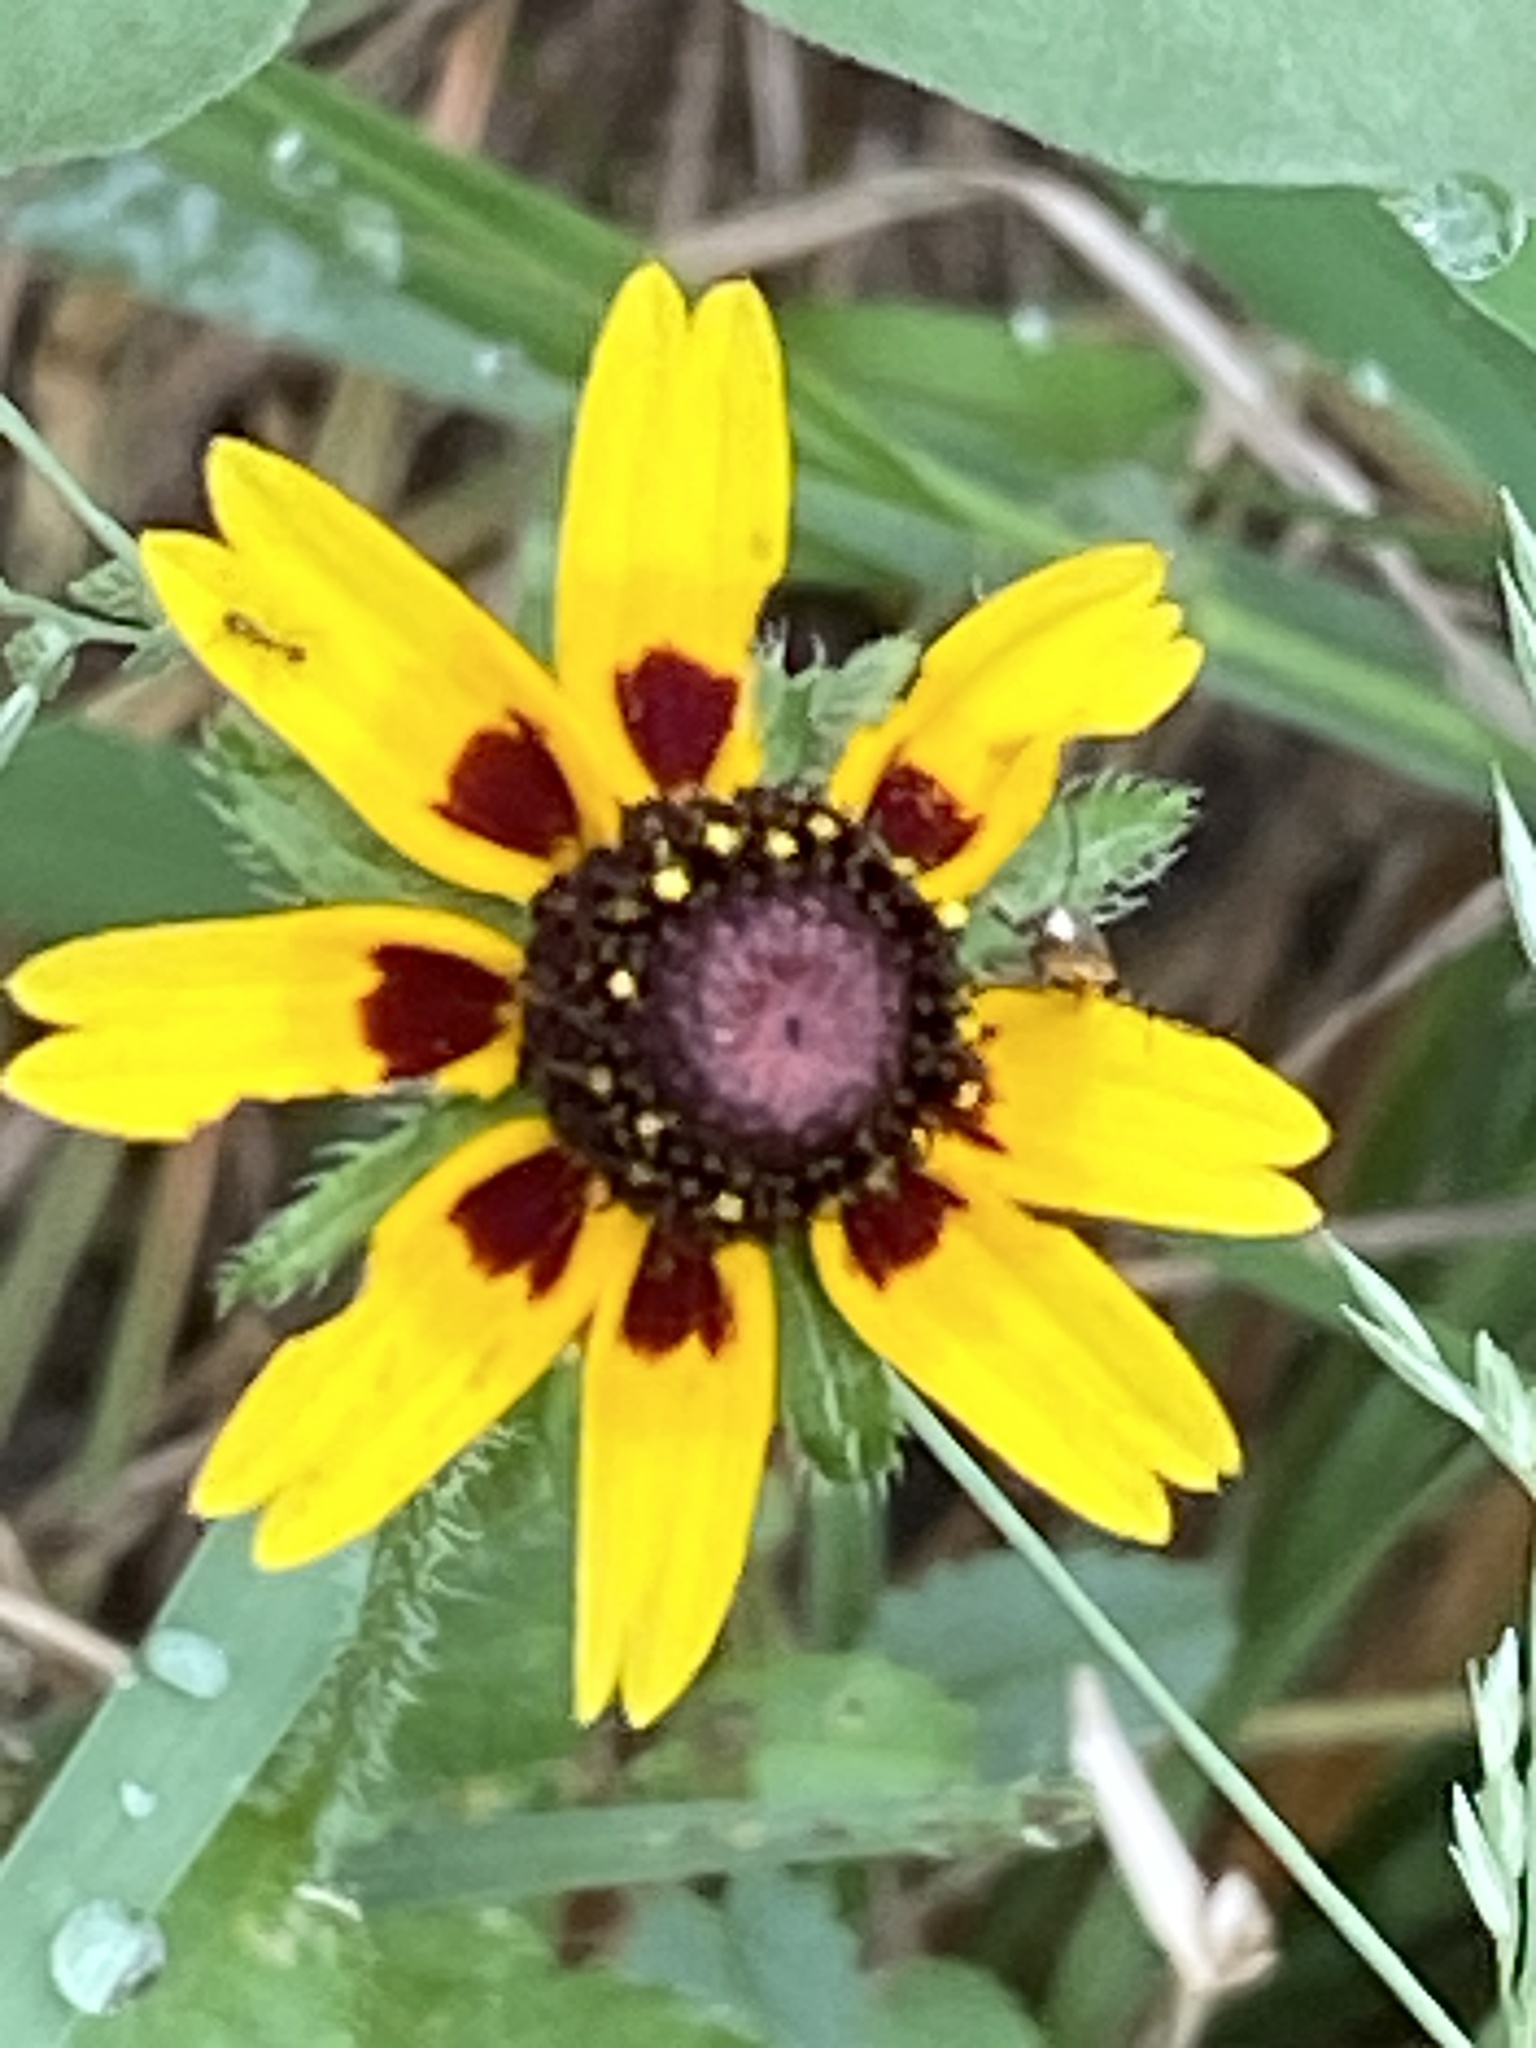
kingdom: Plantae
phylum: Tracheophyta
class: Magnoliopsida
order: Asterales
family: Asteraceae
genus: Rudbeckia
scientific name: Rudbeckia hirta
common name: Black-eyed-susan
